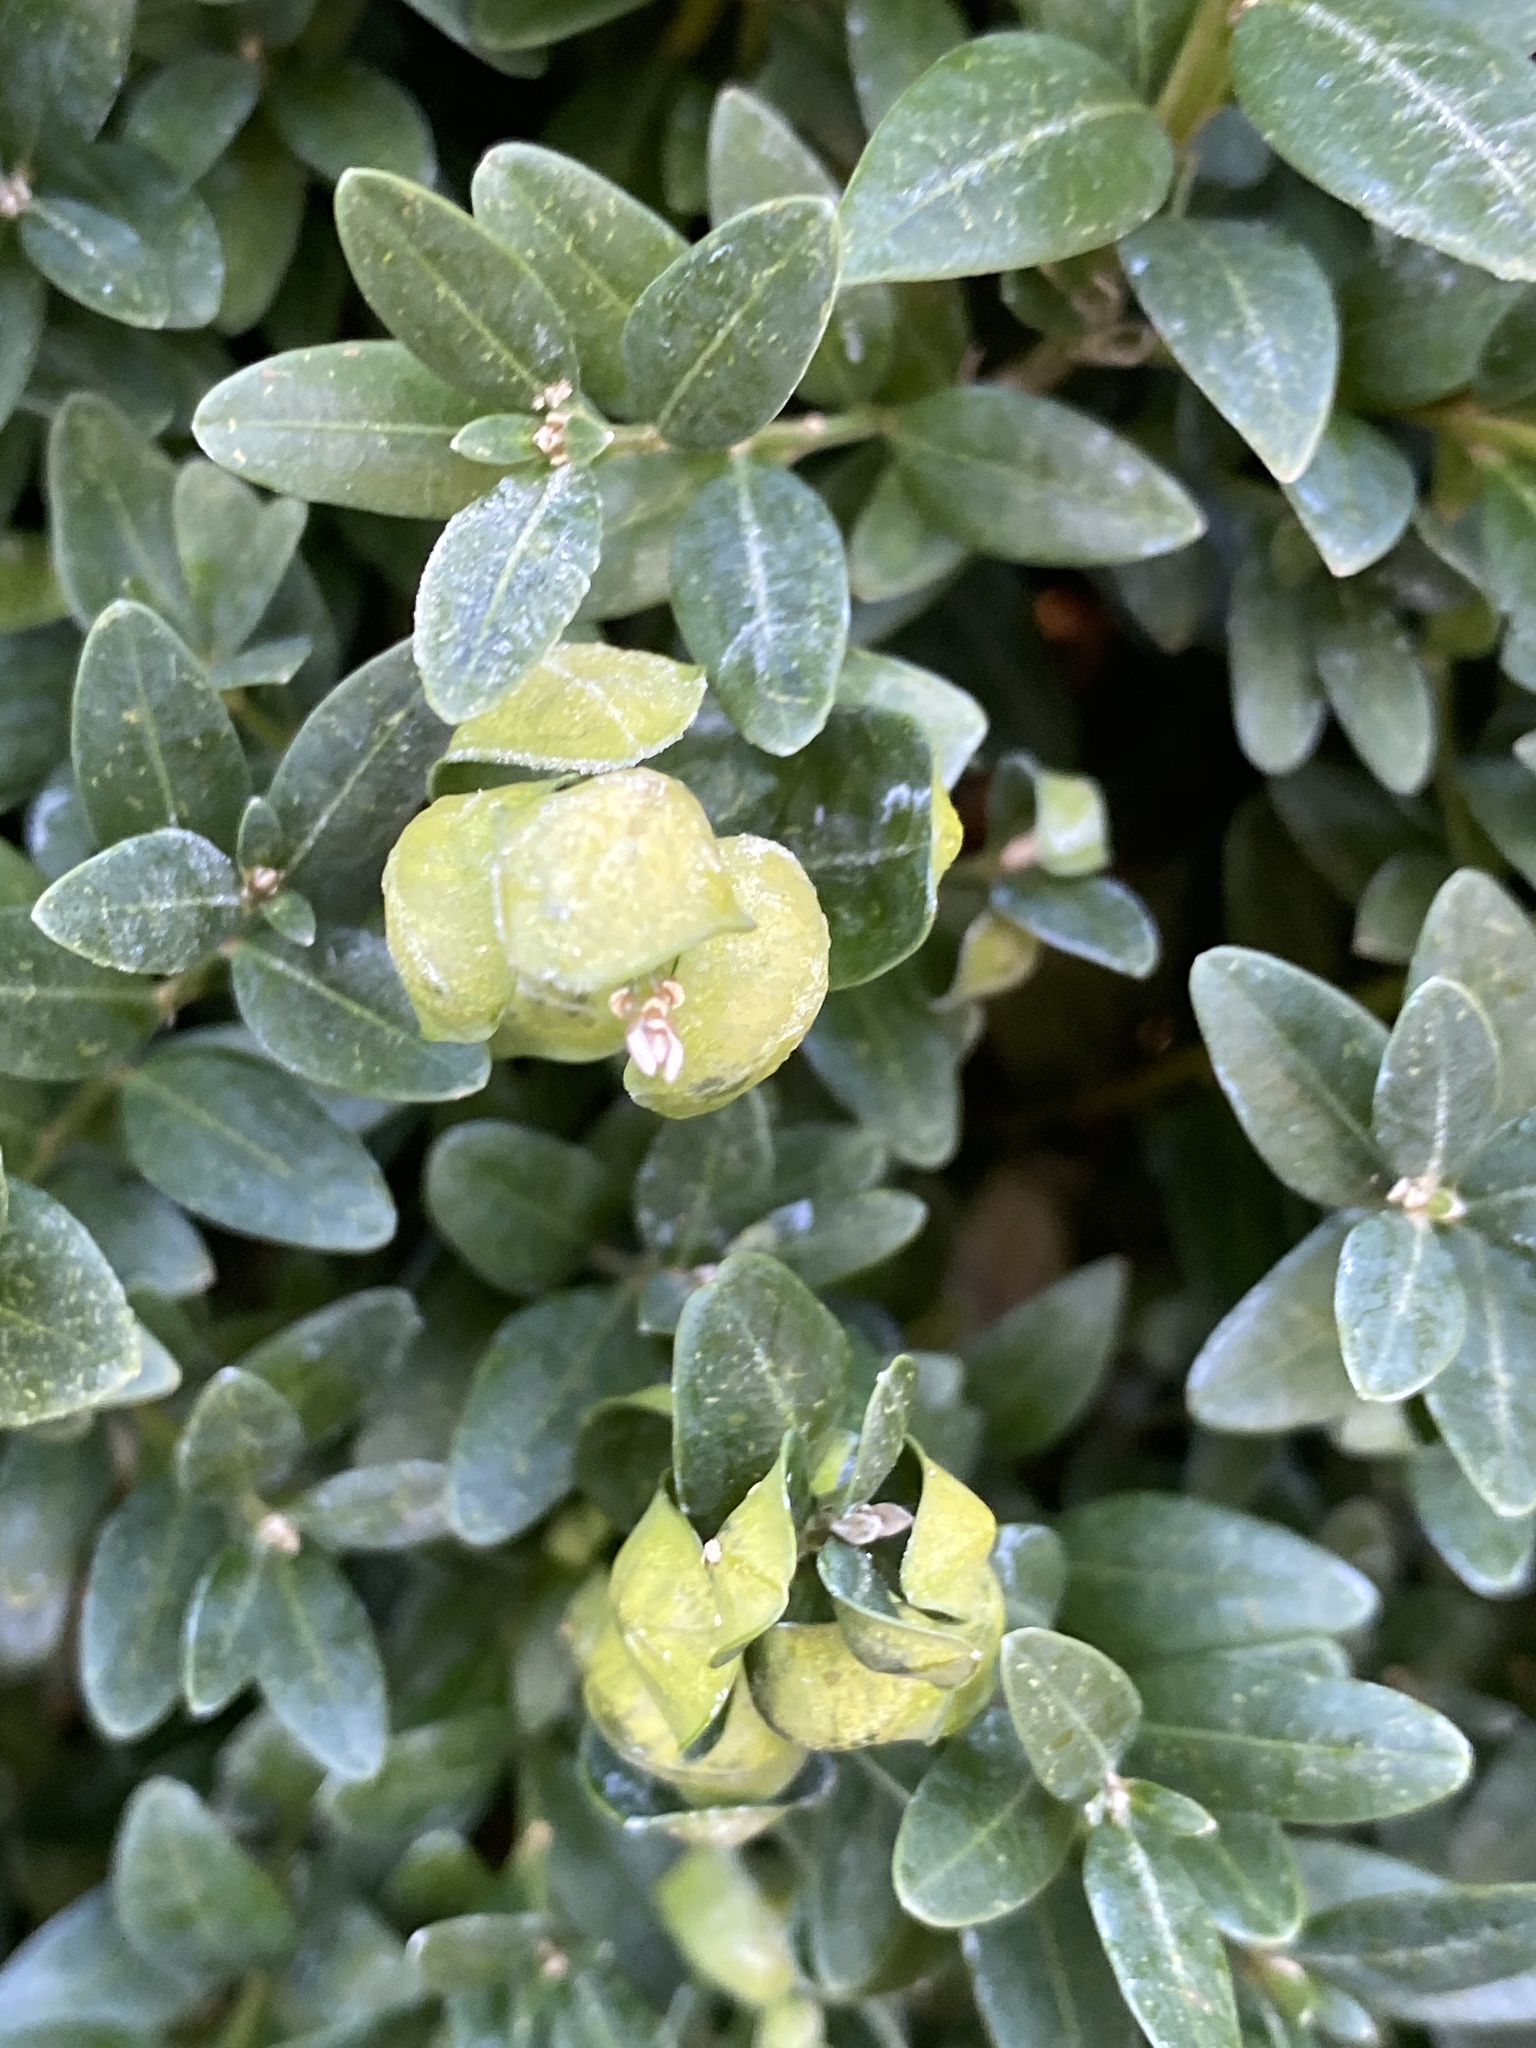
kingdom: Animalia
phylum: Arthropoda
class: Insecta
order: Hemiptera
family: Psyllidae
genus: Psylla
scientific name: Psylla buxi
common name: Boxwood psyllid
